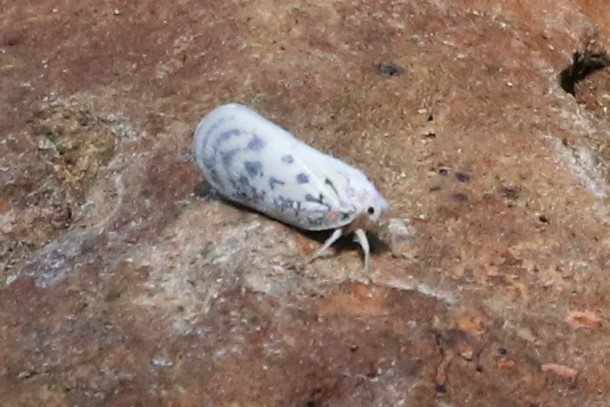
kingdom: Animalia
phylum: Arthropoda
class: Insecta
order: Hemiptera
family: Flatidae
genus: Copsyrna
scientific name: Copsyrna maculata
